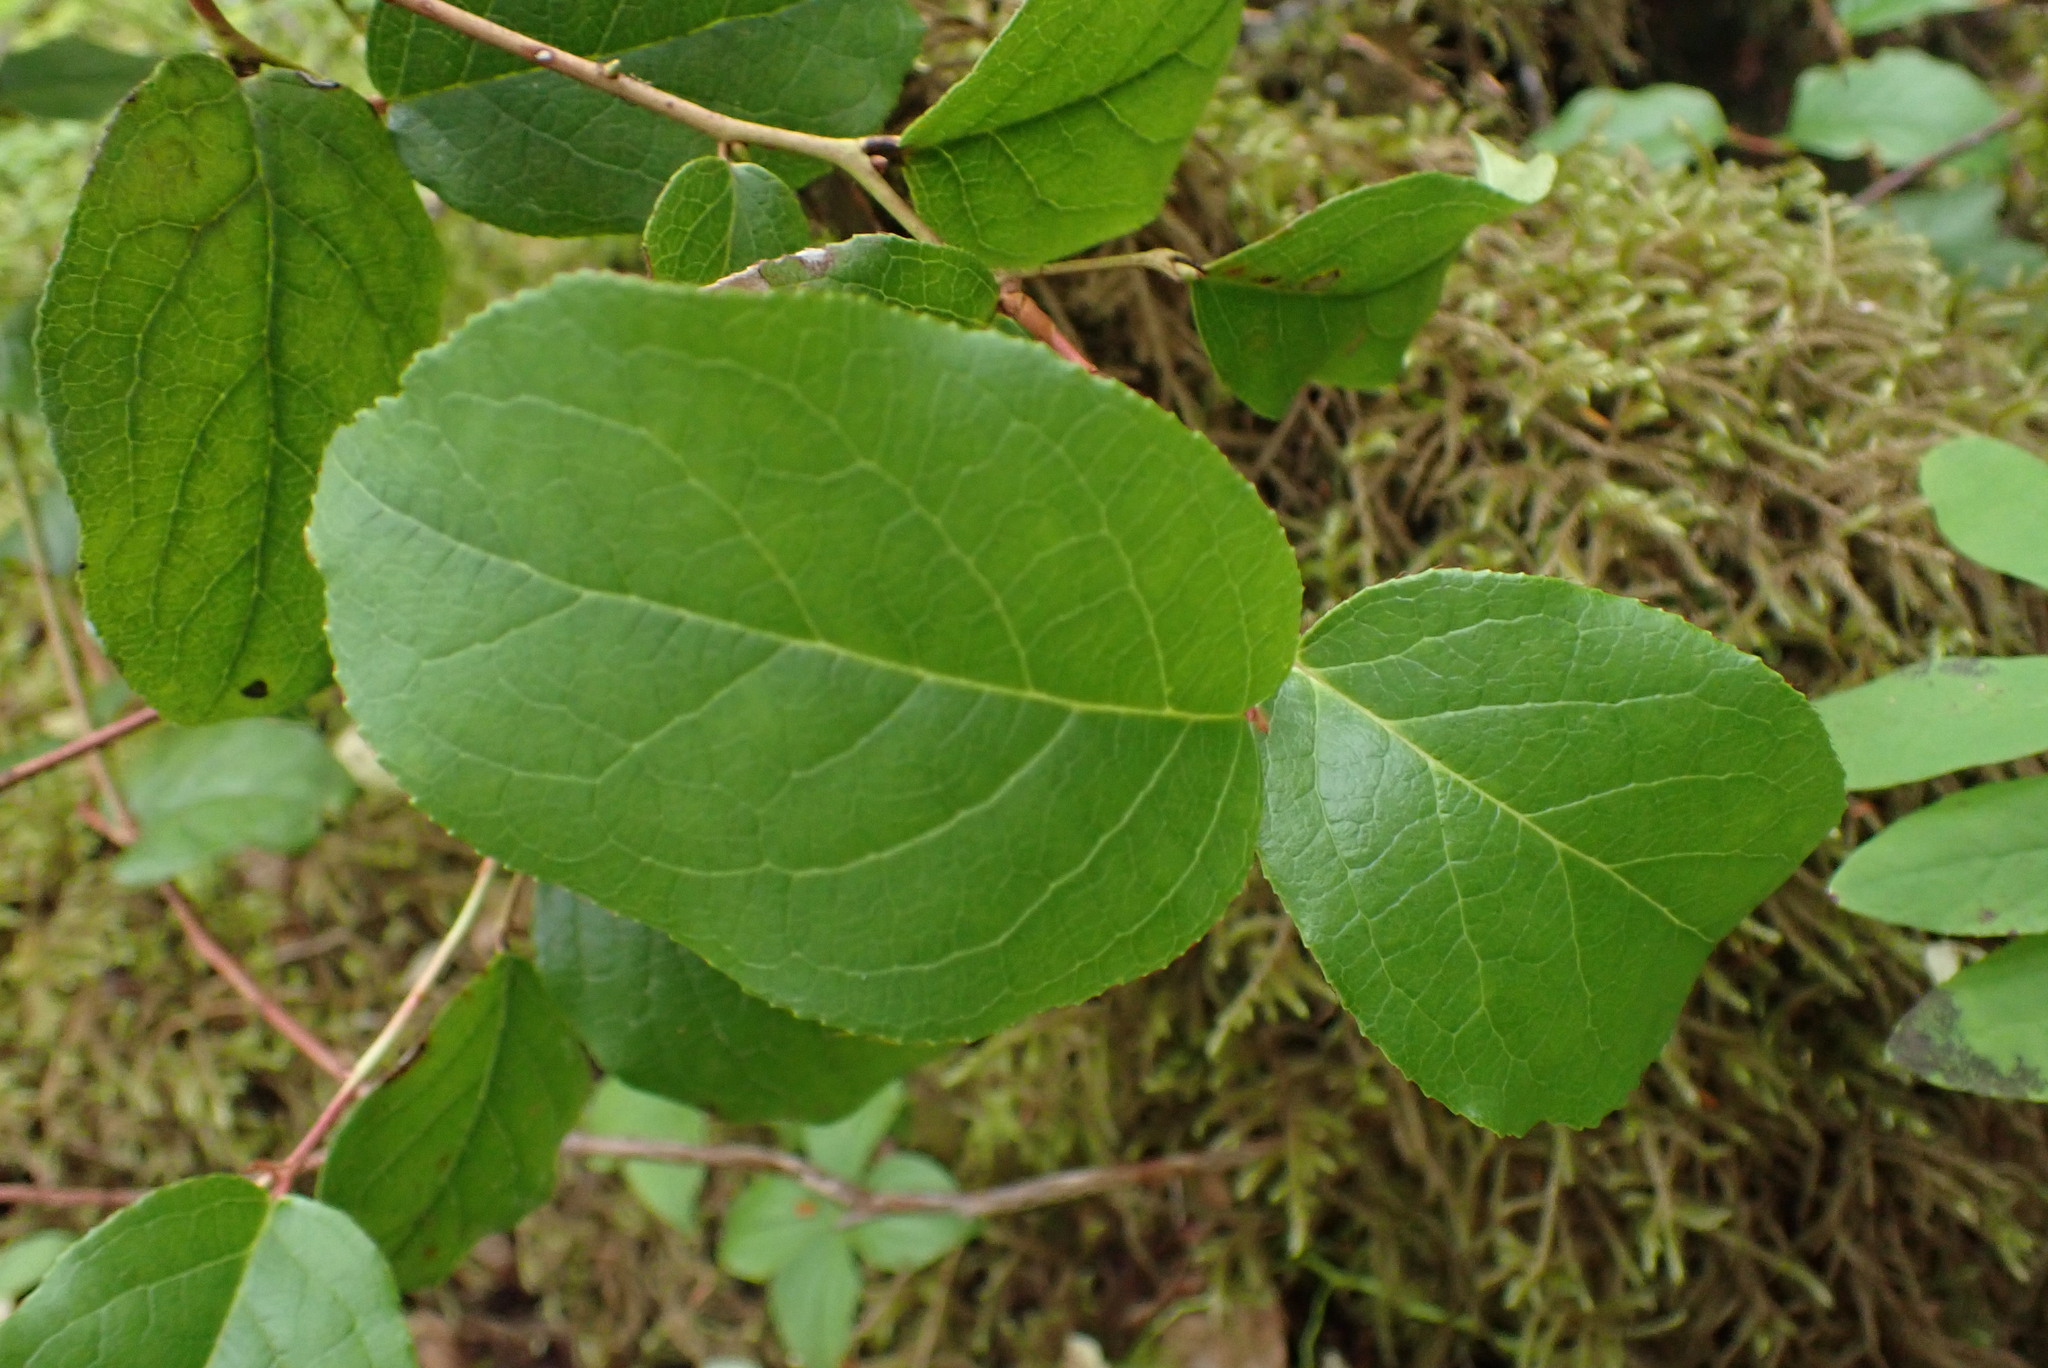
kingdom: Plantae
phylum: Tracheophyta
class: Magnoliopsida
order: Ericales
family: Ericaceae
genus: Gaultheria
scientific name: Gaultheria shallon
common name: Shallon
